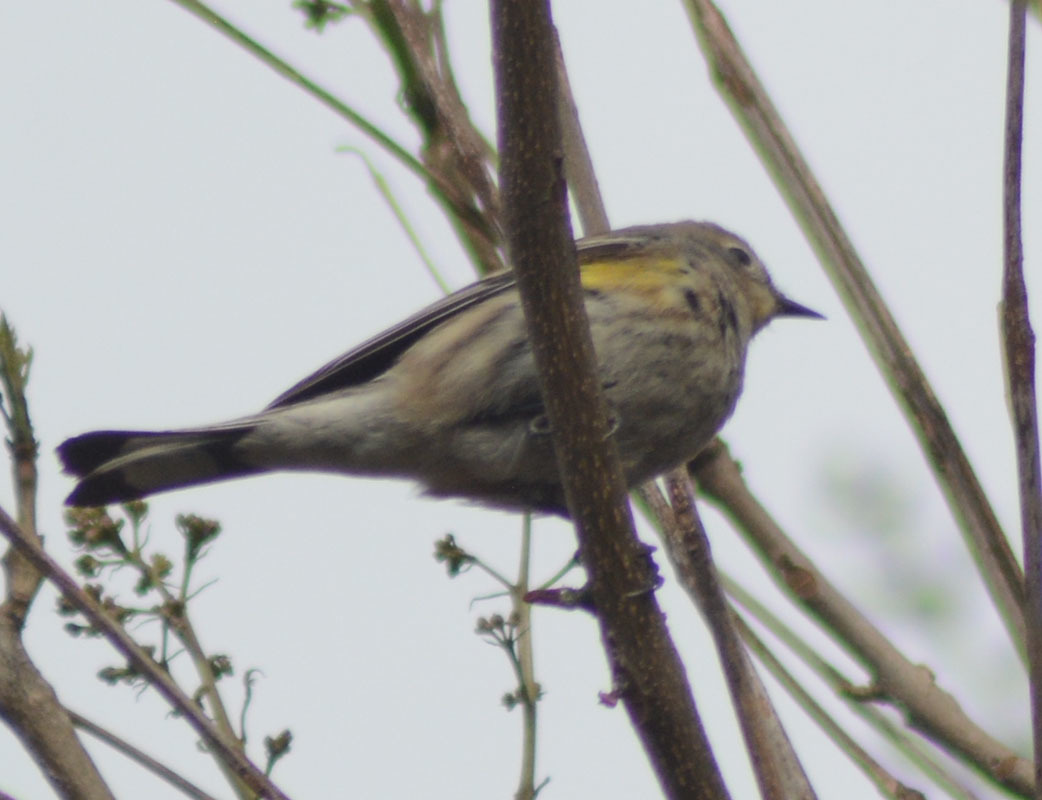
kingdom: Animalia
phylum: Chordata
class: Aves
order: Passeriformes
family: Parulidae
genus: Setophaga
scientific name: Setophaga auduboni
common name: Audubon's warbler
